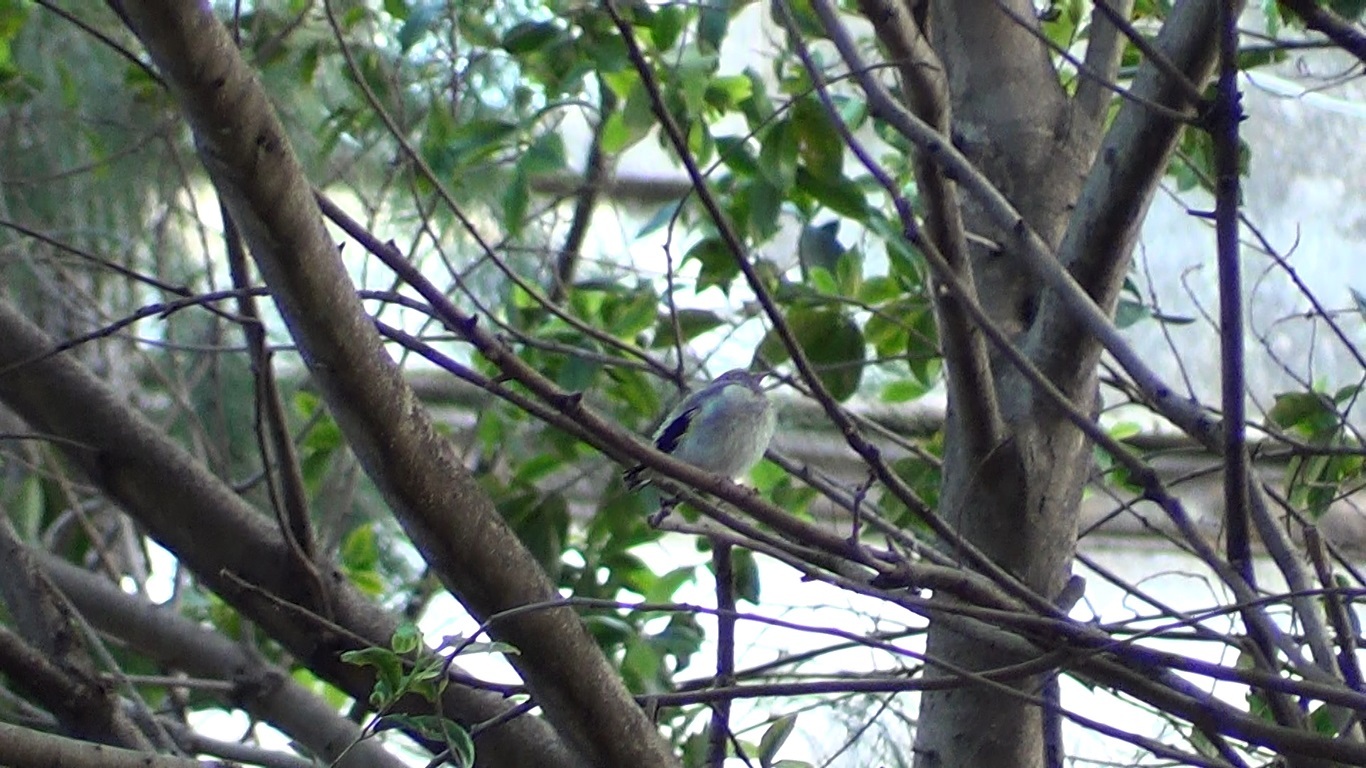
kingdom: Animalia
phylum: Chordata
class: Aves
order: Passeriformes
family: Fringillidae
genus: Carduelis
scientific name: Carduelis carduelis
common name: European goldfinch
